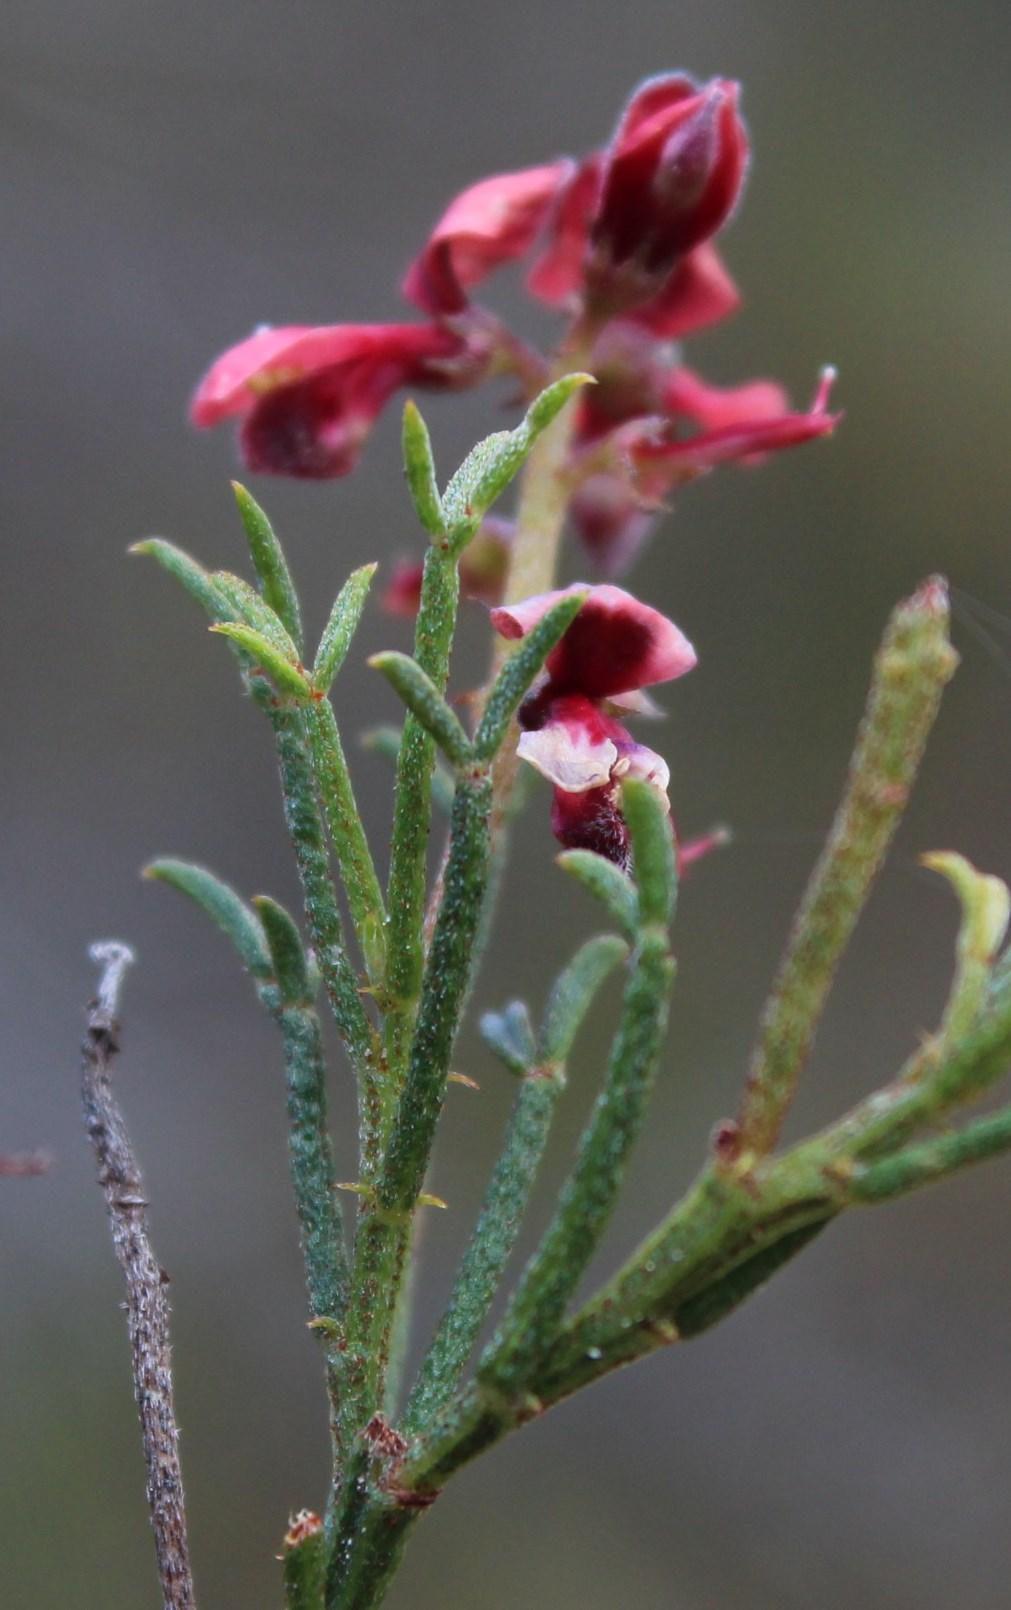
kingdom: Plantae
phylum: Tracheophyta
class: Magnoliopsida
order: Fabales
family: Fabaceae
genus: Indigofera
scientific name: Indigofera heterophylla
